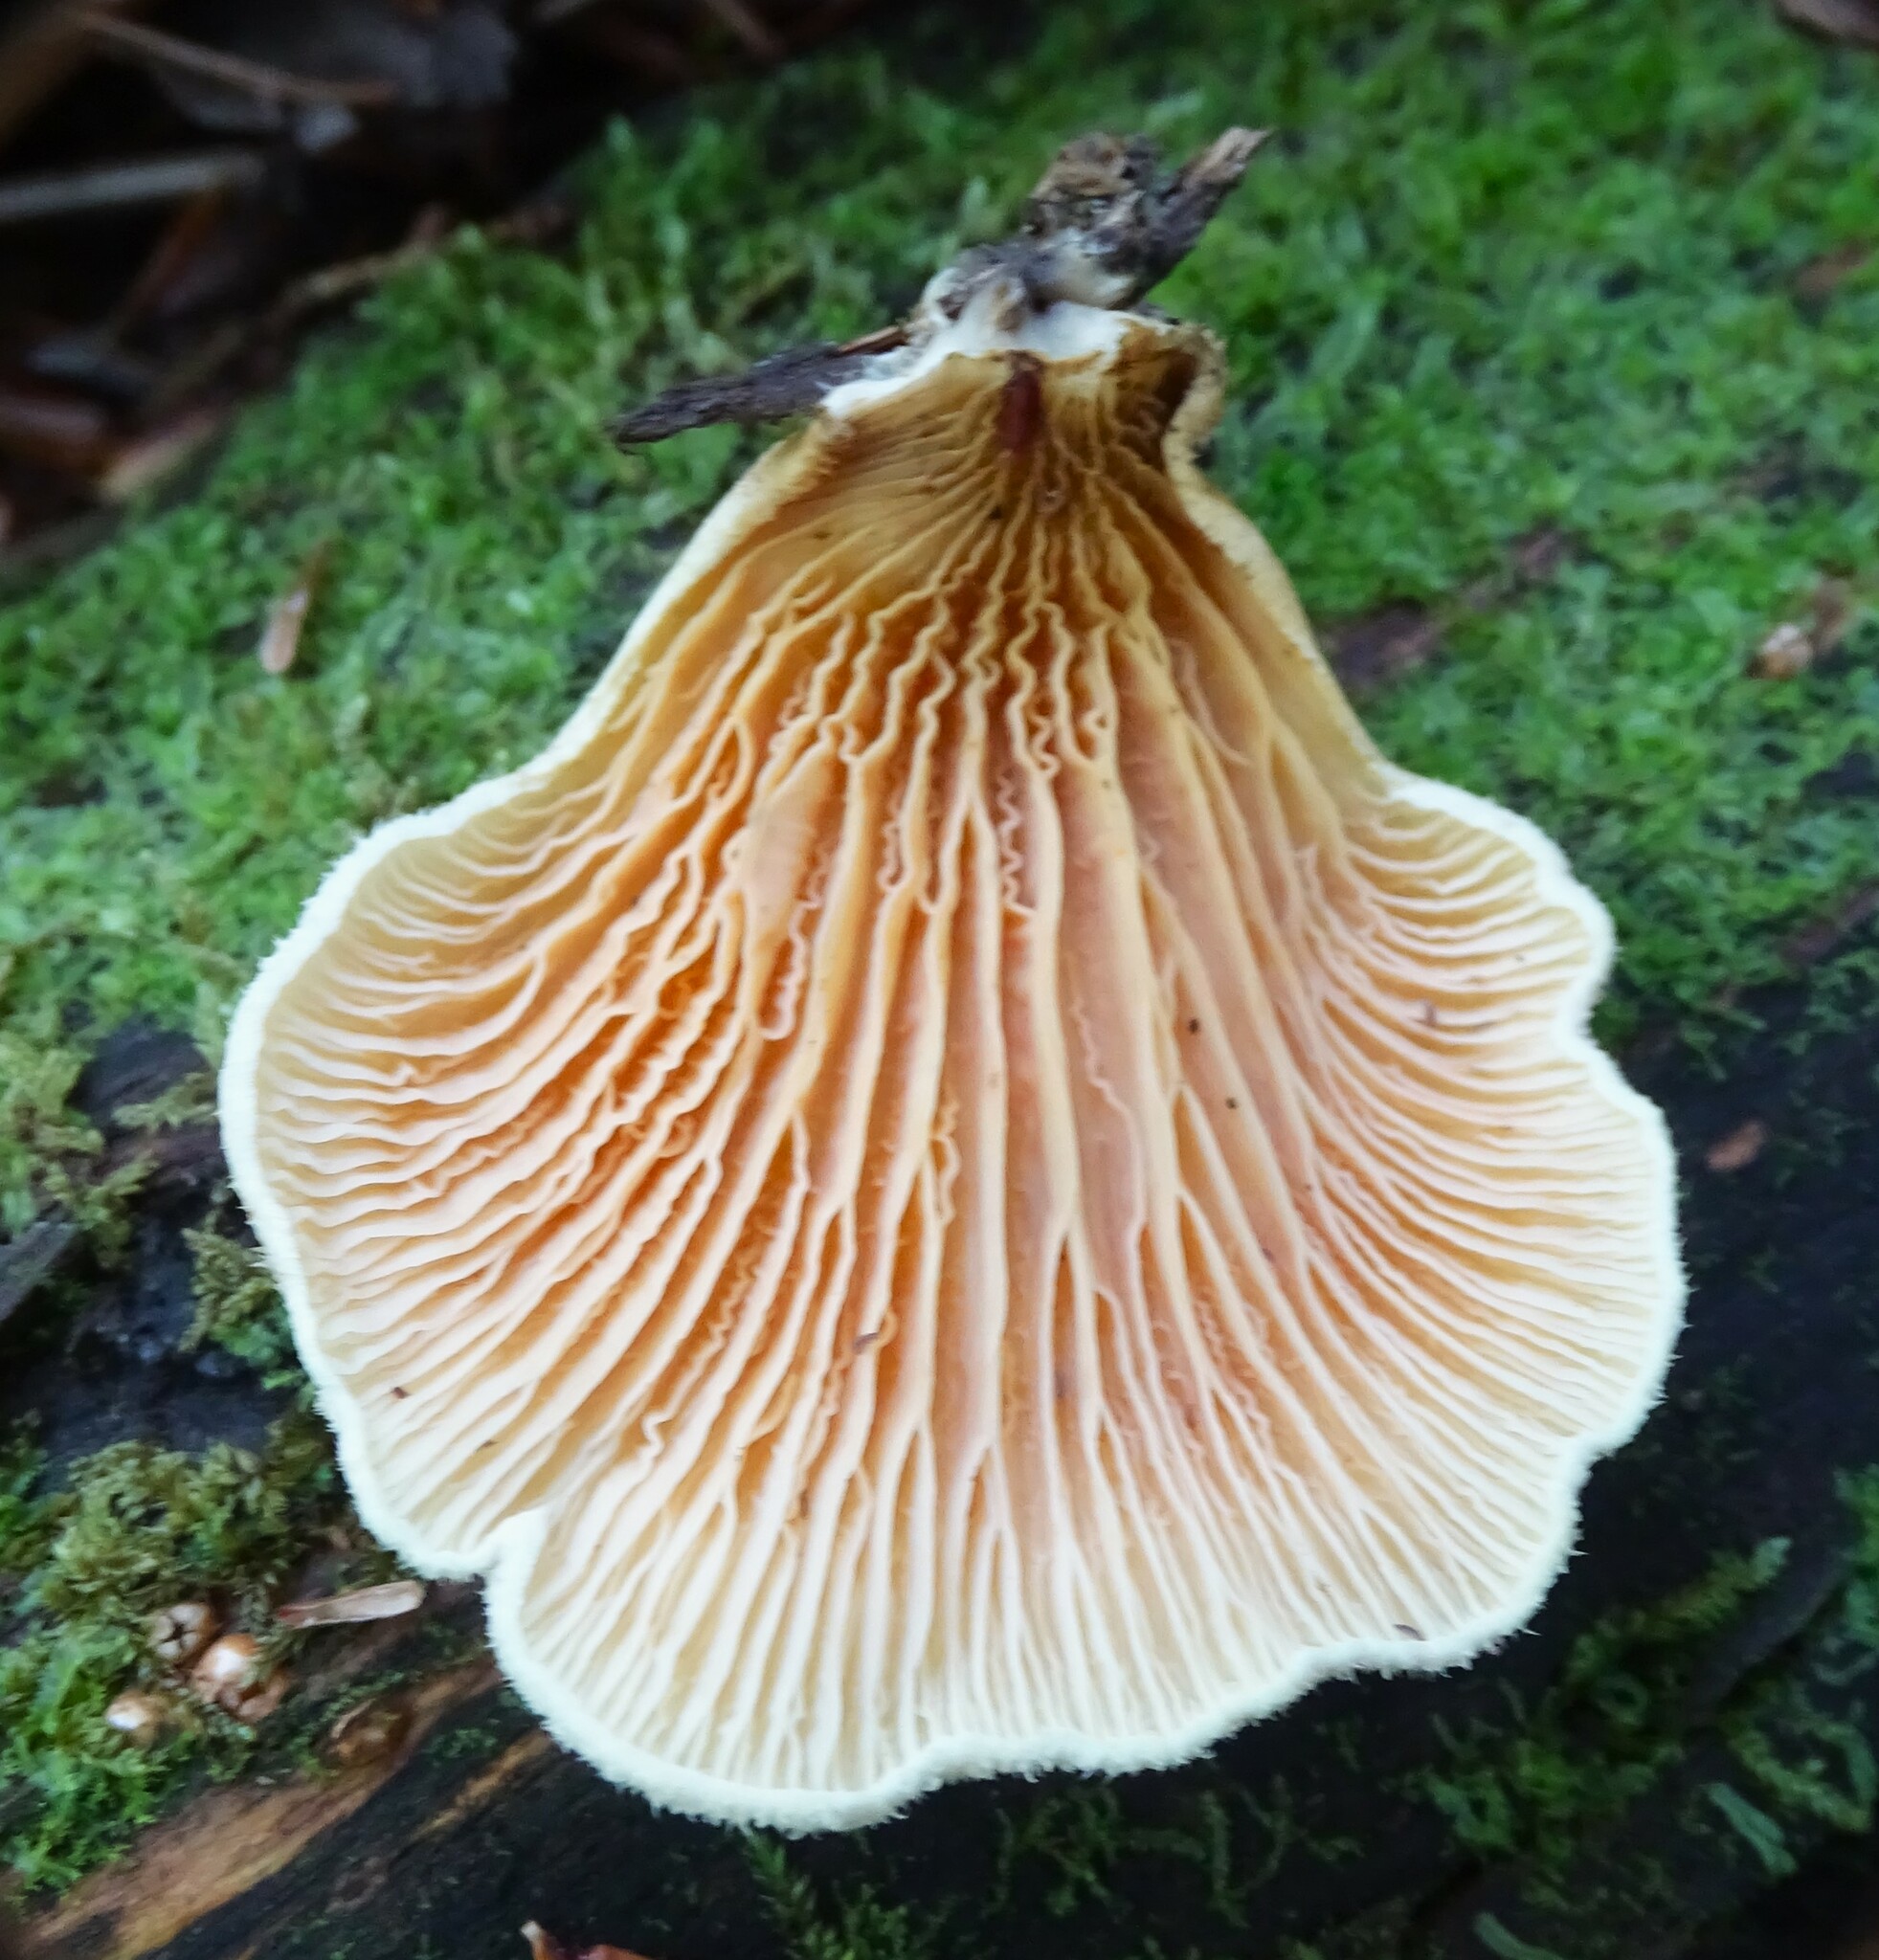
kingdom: Fungi
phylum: Basidiomycota
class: Agaricomycetes
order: Boletales
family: Tapinellaceae
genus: Tapinella
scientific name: Tapinella panuoides
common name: Oyster rollrim
